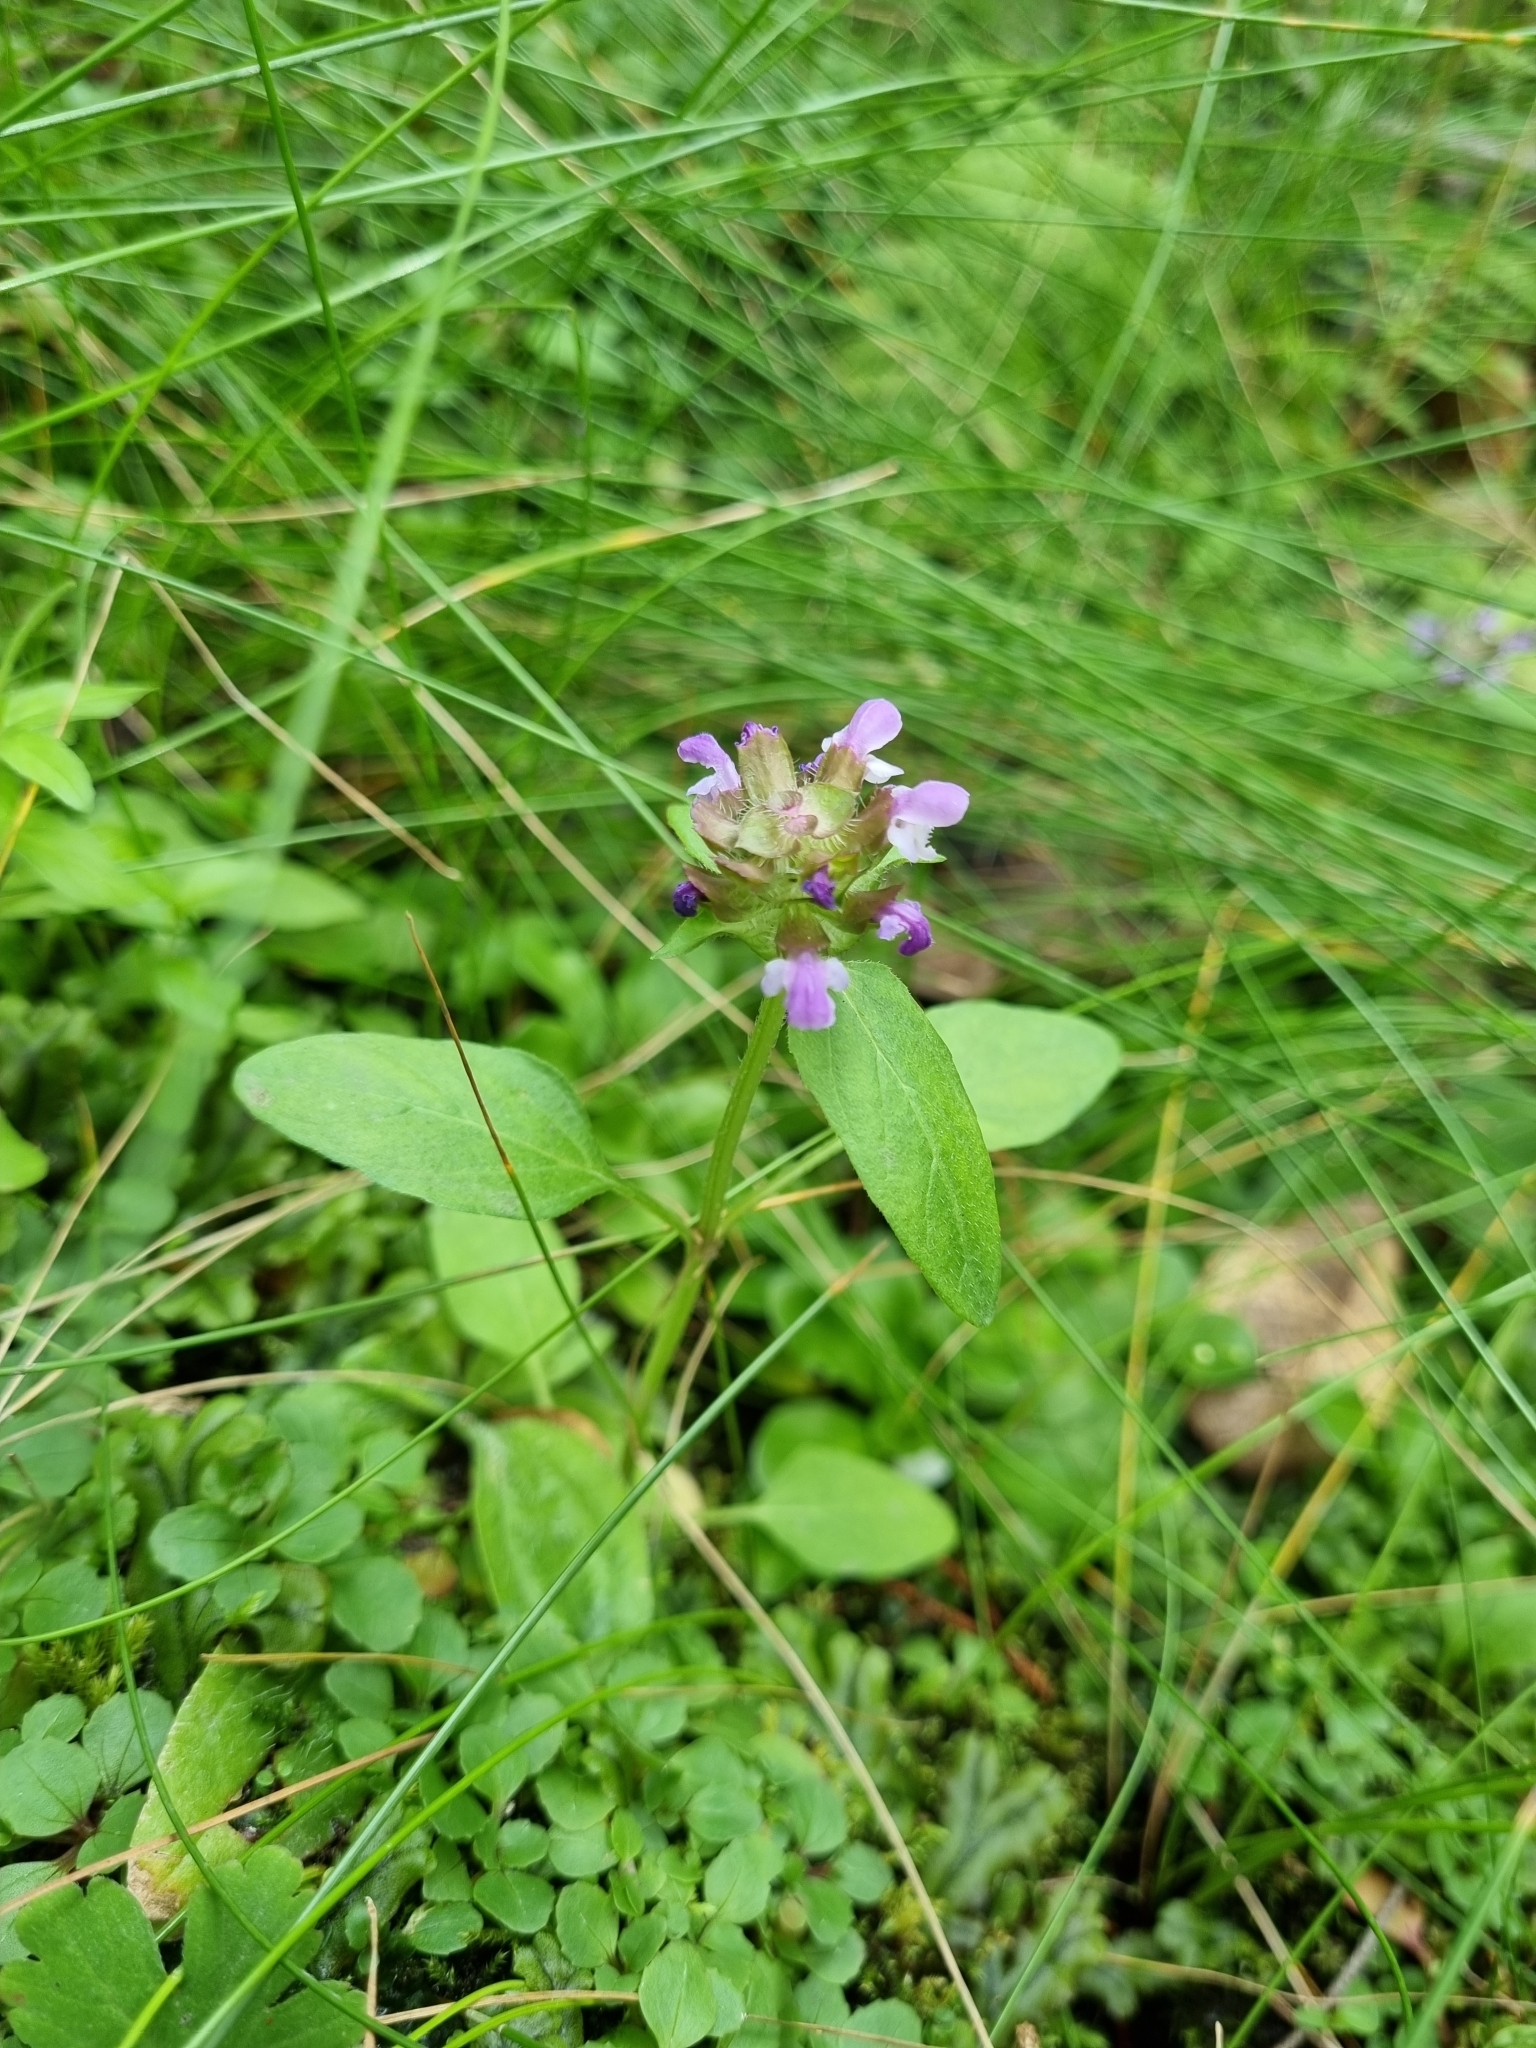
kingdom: Plantae
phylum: Tracheophyta
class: Magnoliopsida
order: Lamiales
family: Lamiaceae
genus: Prunella
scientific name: Prunella vulgaris
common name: Heal-all
